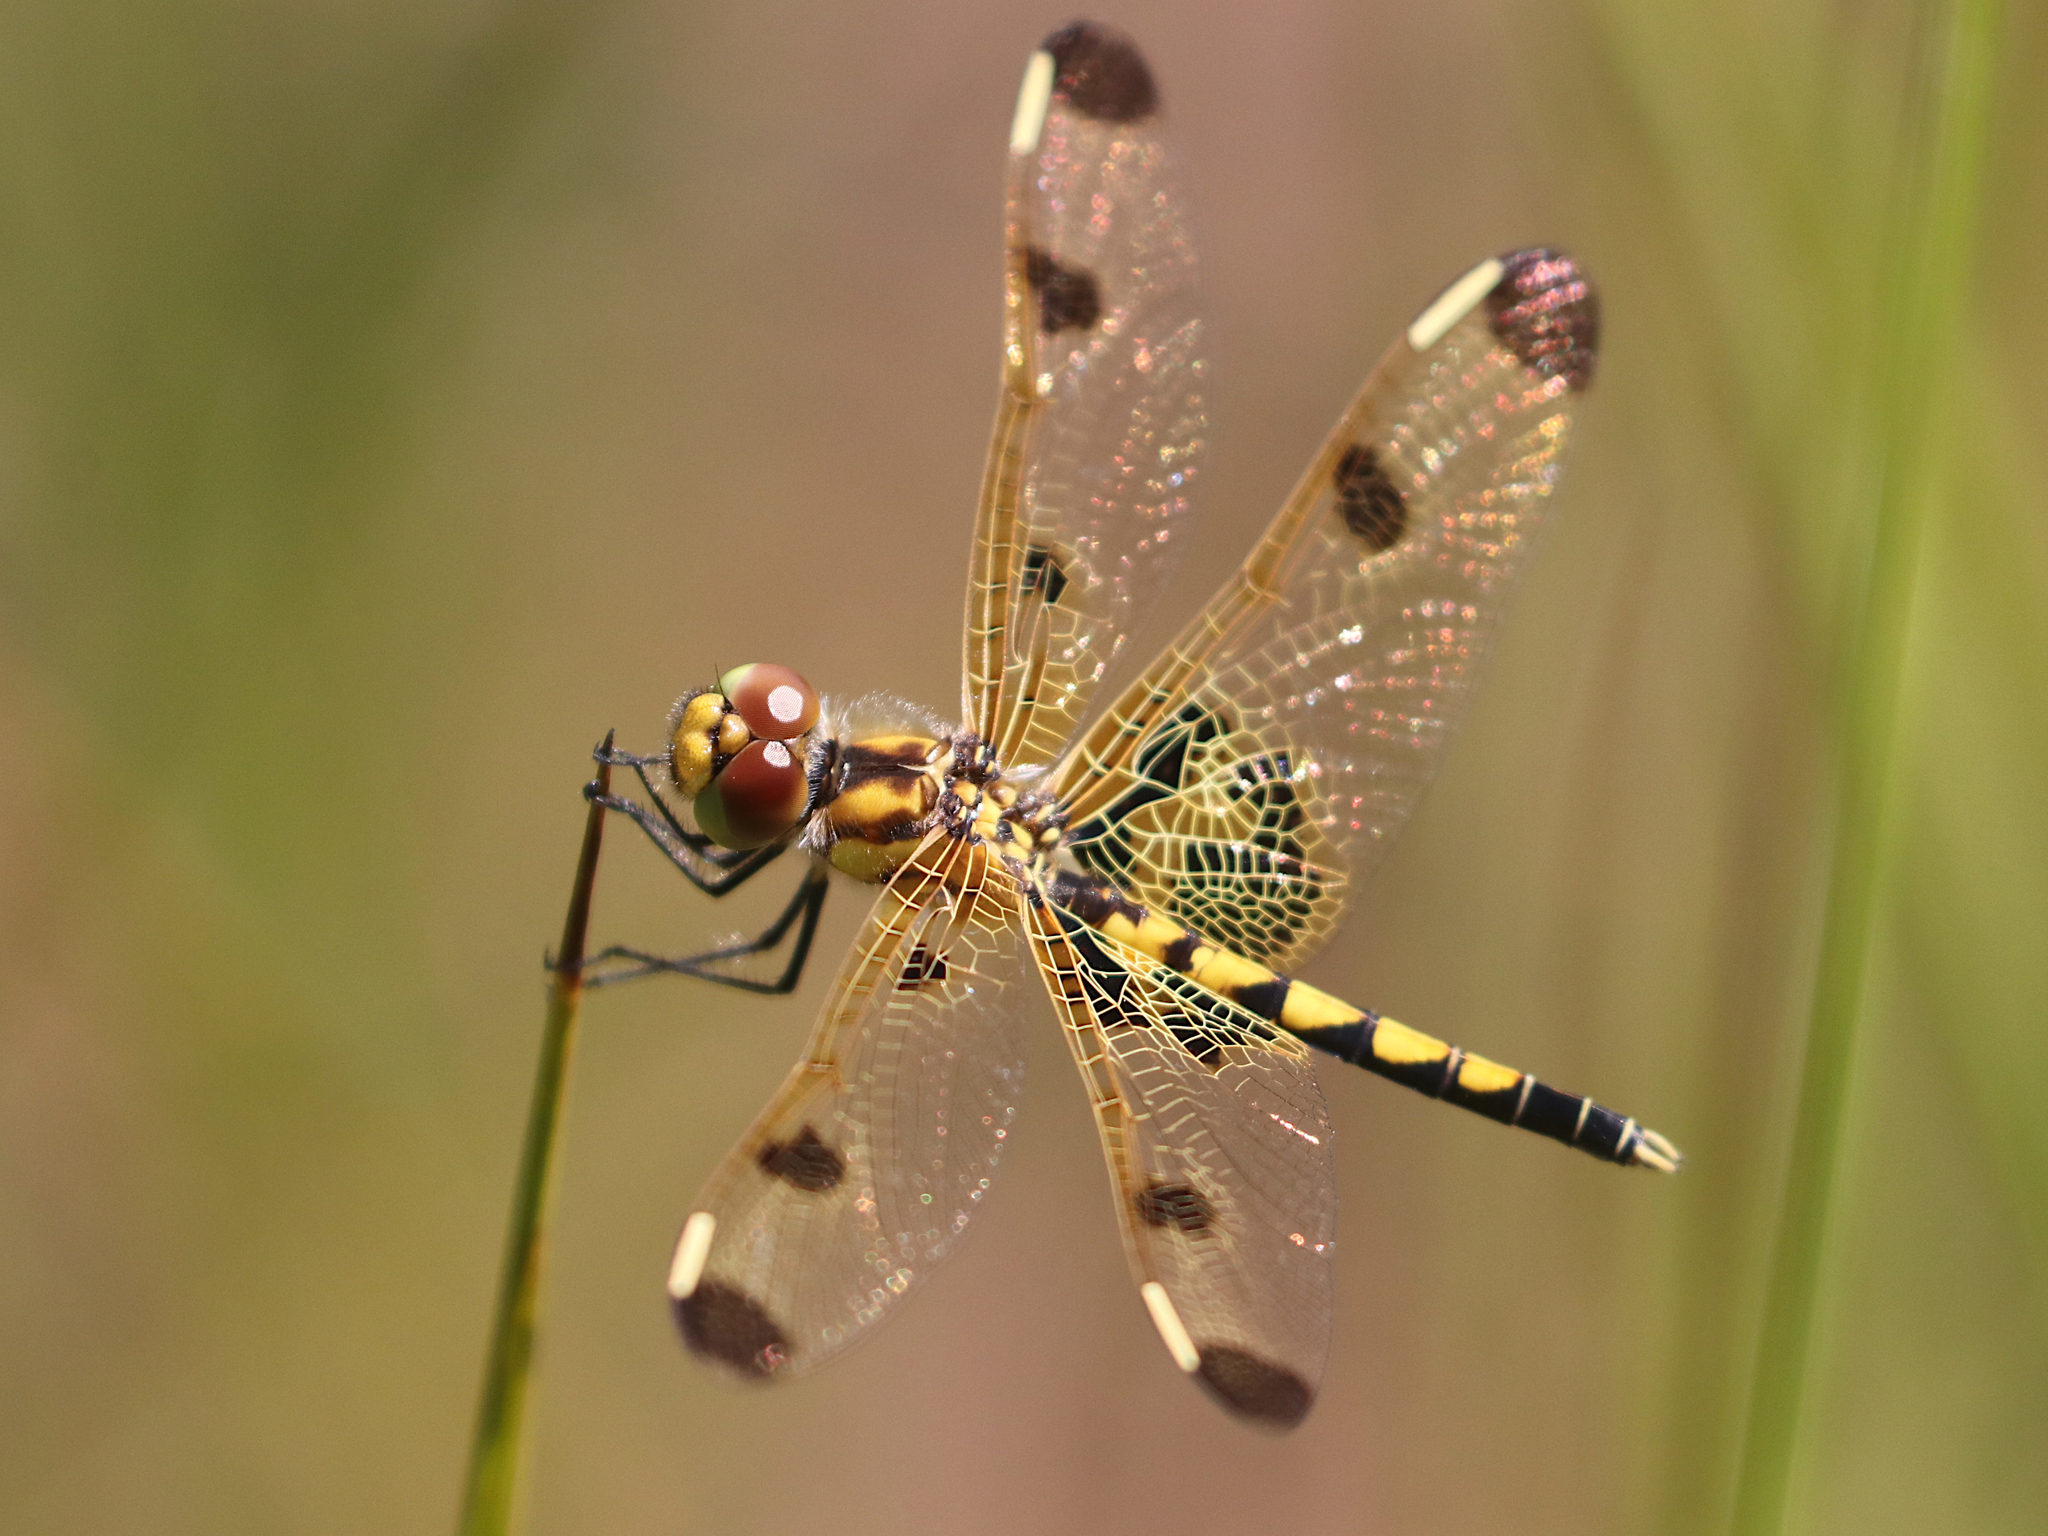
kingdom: Animalia
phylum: Arthropoda
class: Insecta
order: Odonata
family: Libellulidae
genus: Celithemis
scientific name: Celithemis elisa
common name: Calico pennant
